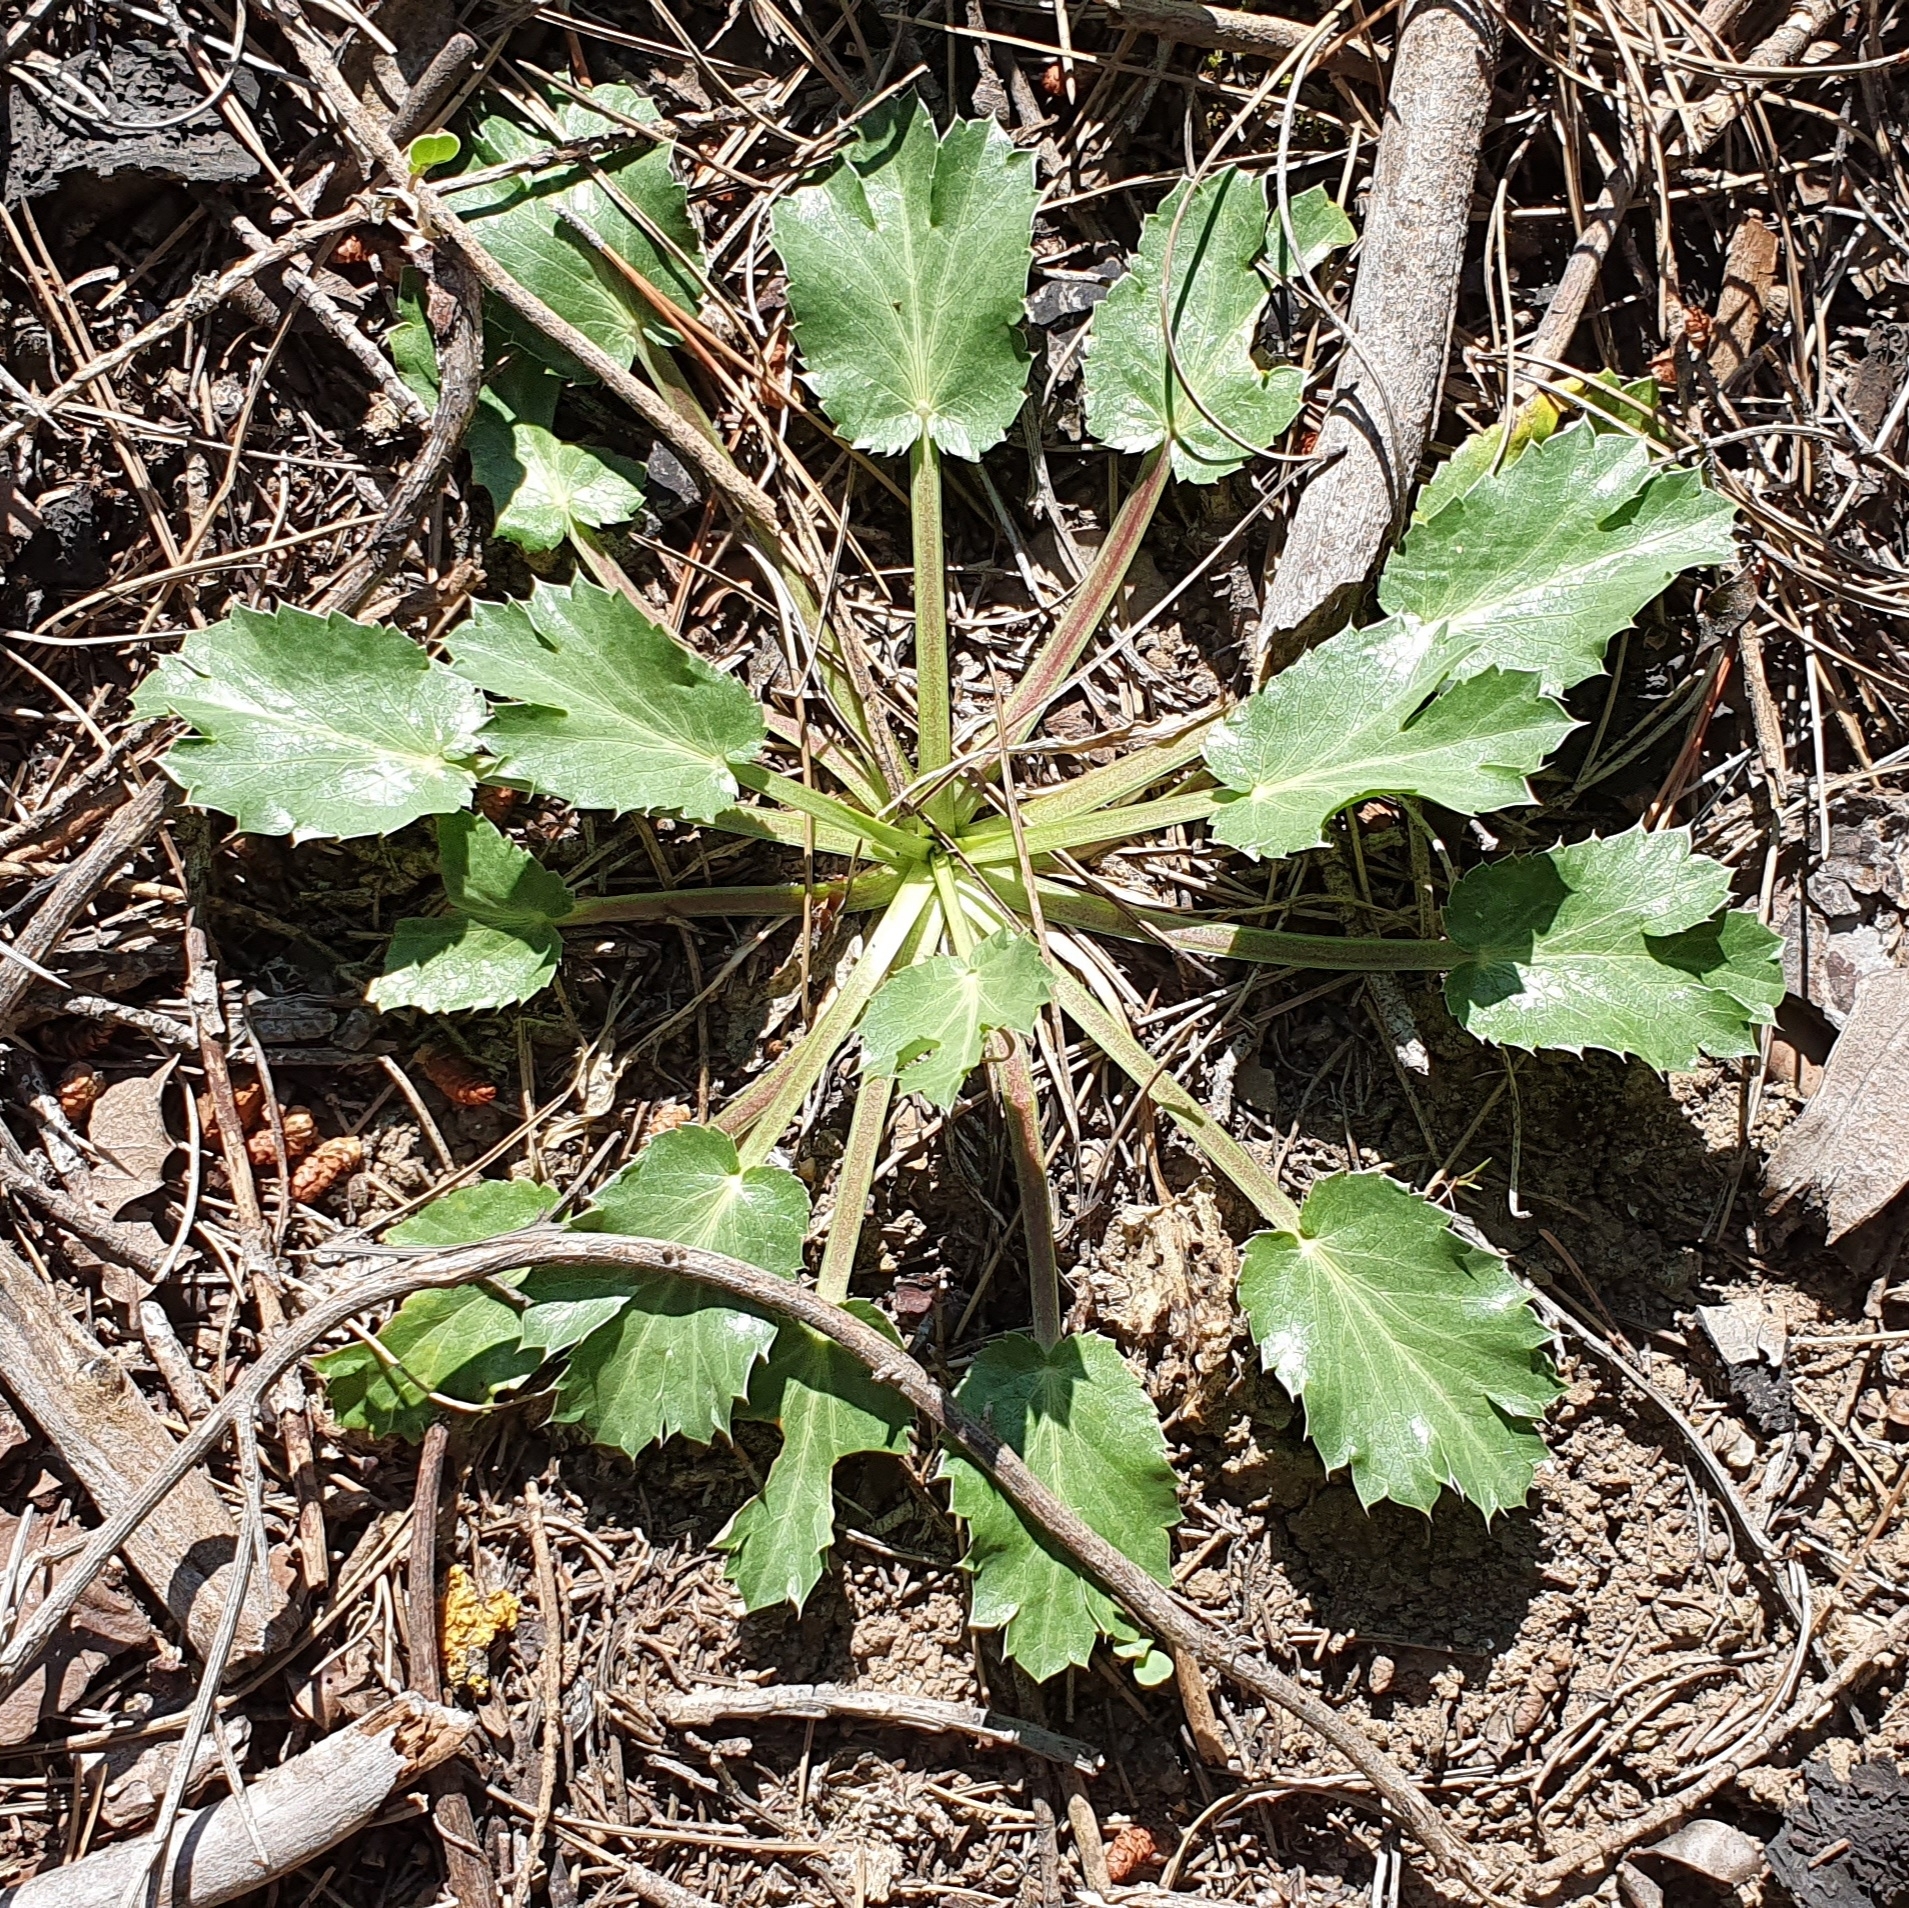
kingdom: Plantae
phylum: Tracheophyta
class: Magnoliopsida
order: Apiales
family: Apiaceae
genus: Eryngium
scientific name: Eryngium triquetrum
